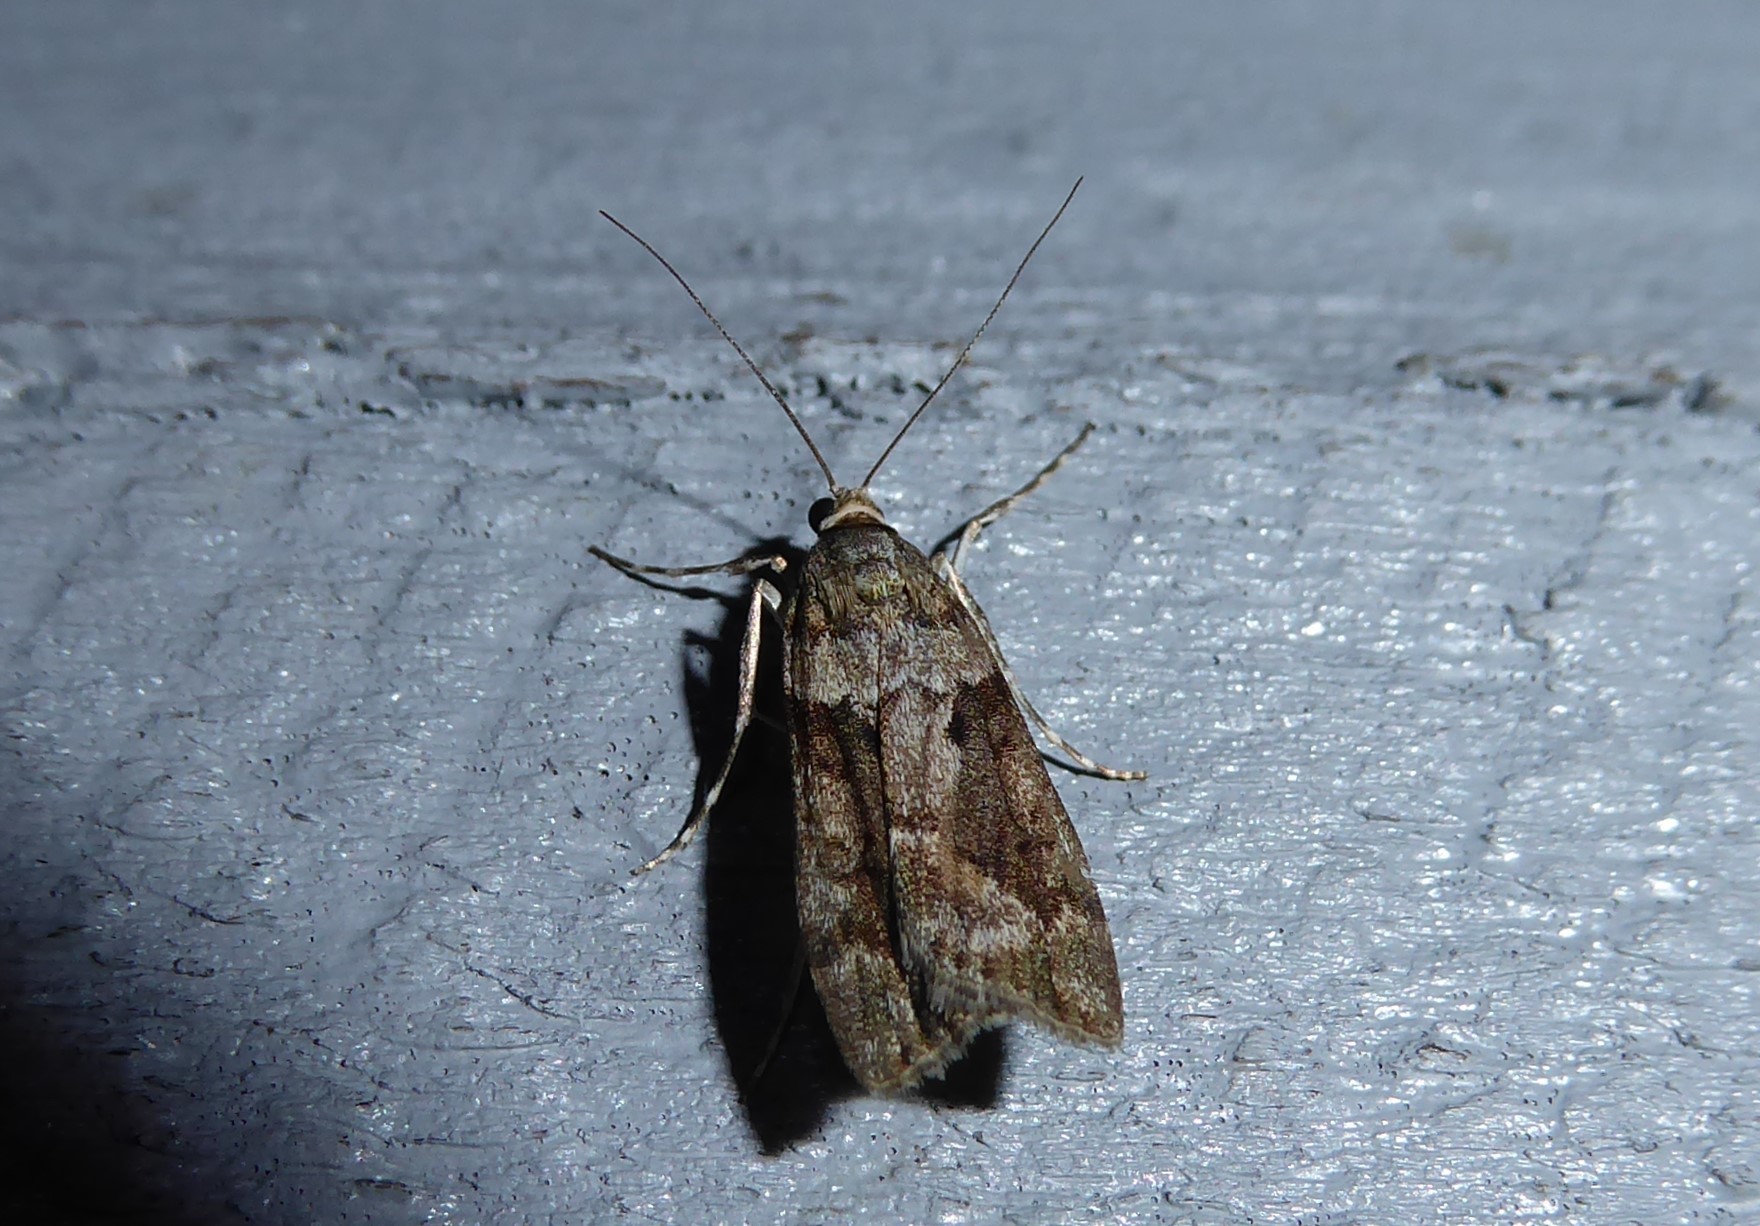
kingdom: Animalia
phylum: Arthropoda
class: Insecta
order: Lepidoptera
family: Crambidae
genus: Eudonia
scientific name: Eudonia submarginalis
